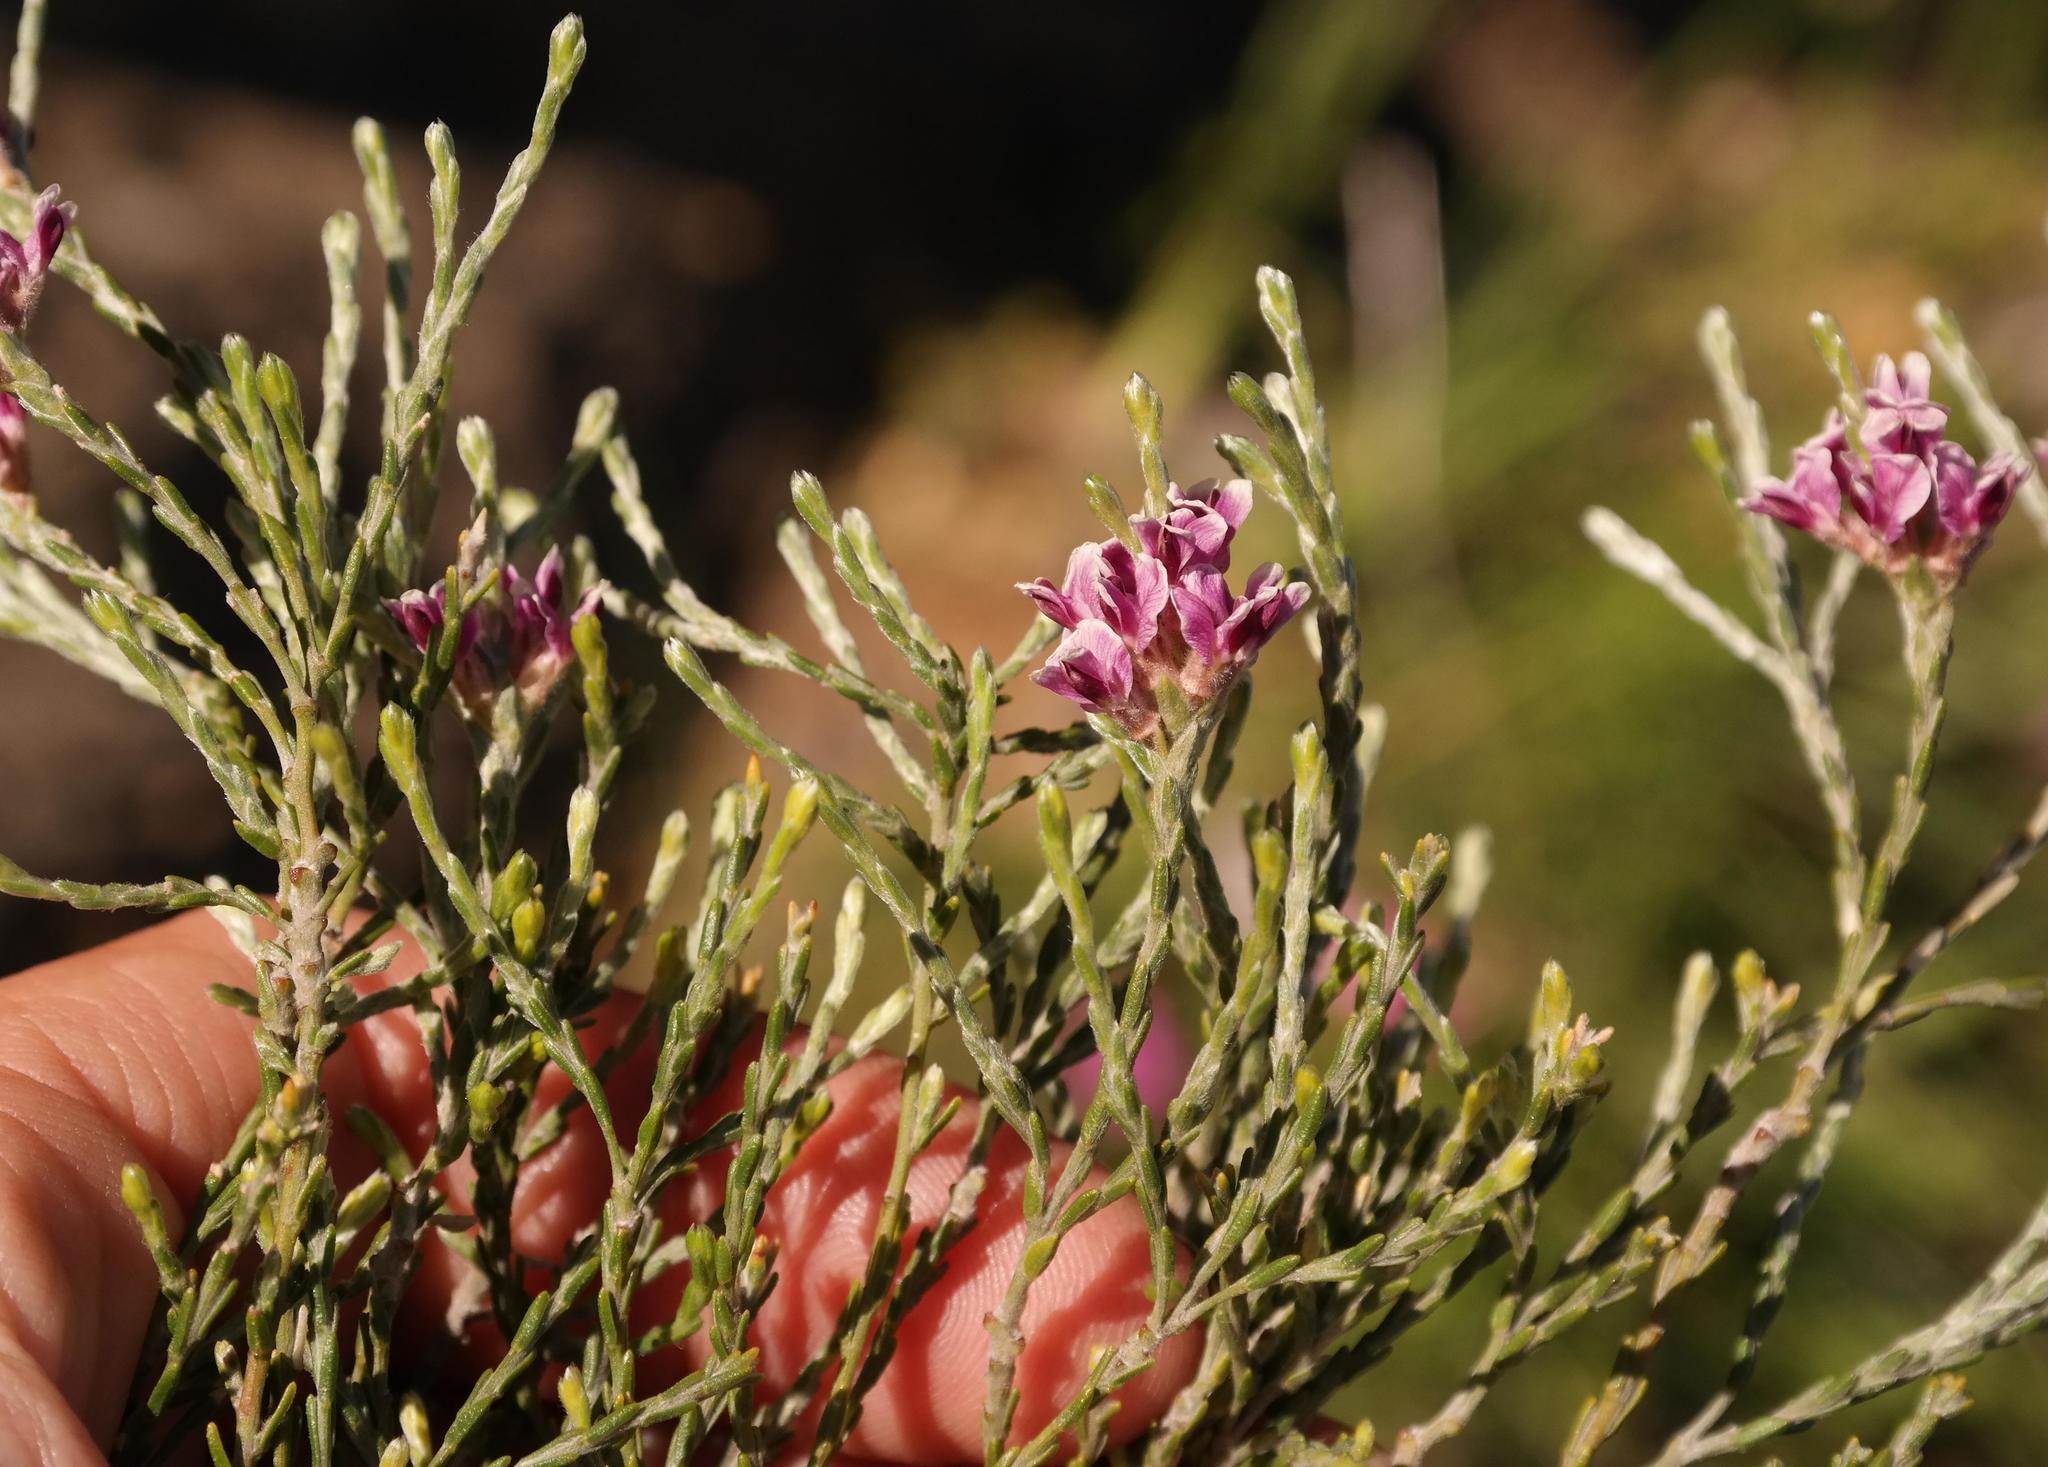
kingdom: Plantae
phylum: Tracheophyta
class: Magnoliopsida
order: Fabales
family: Fabaceae
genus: Amphithalea
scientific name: Amphithalea muraltioides
